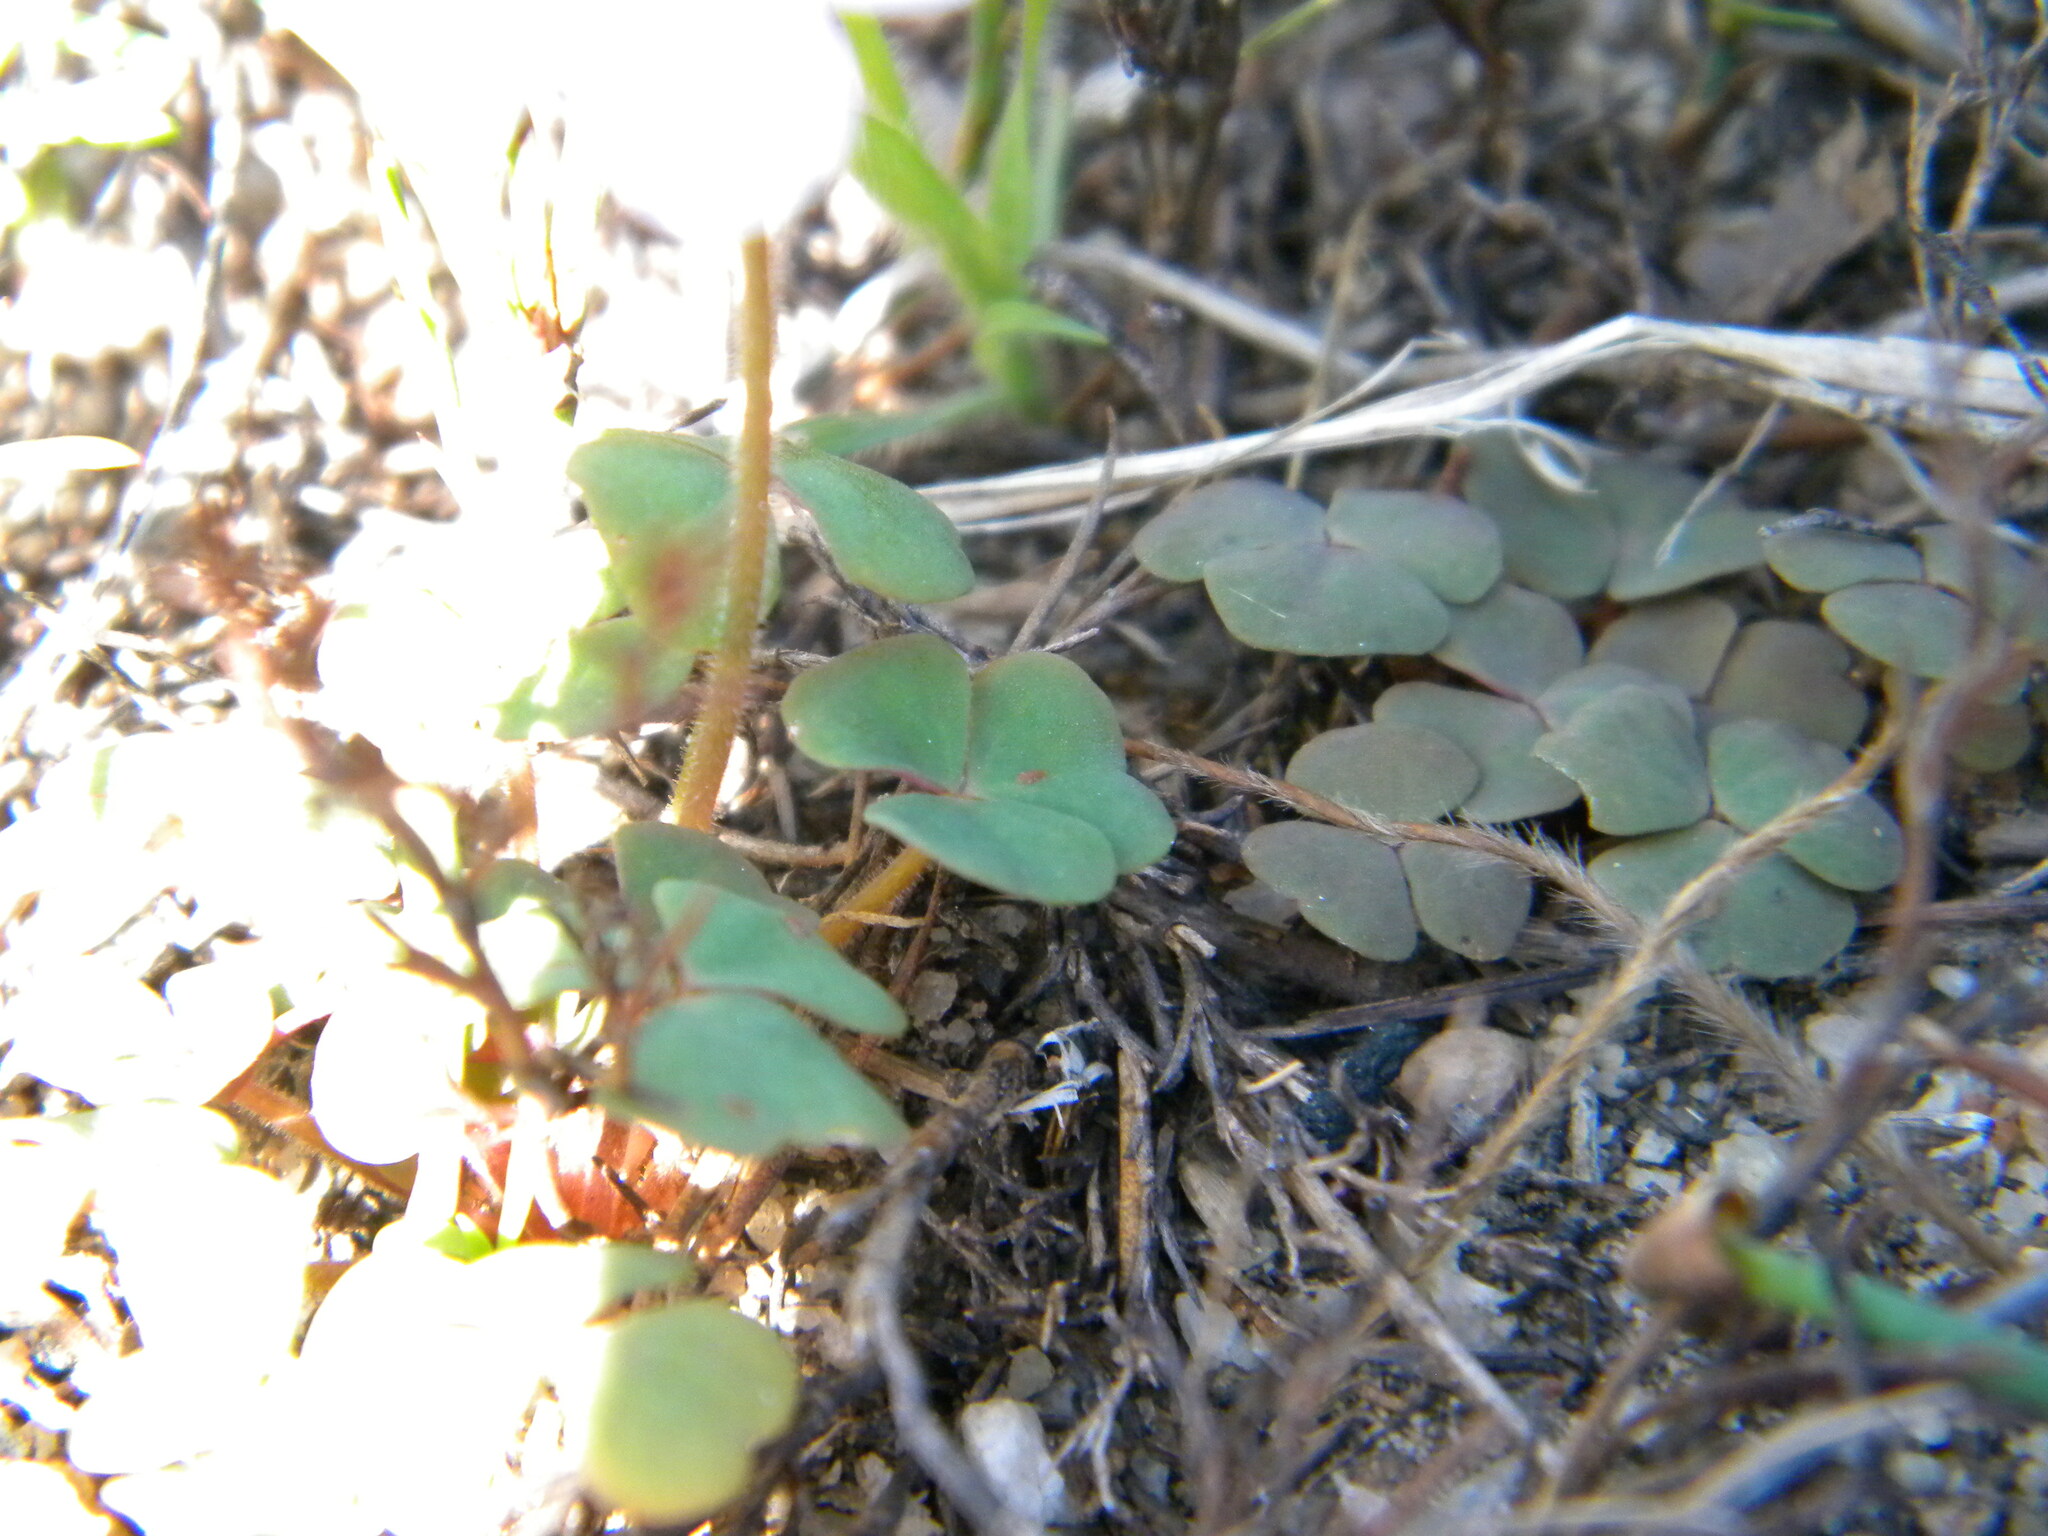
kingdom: Plantae
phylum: Tracheophyta
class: Magnoliopsida
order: Oxalidales
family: Oxalidaceae
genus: Oxalis
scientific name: Oxalis punctata
